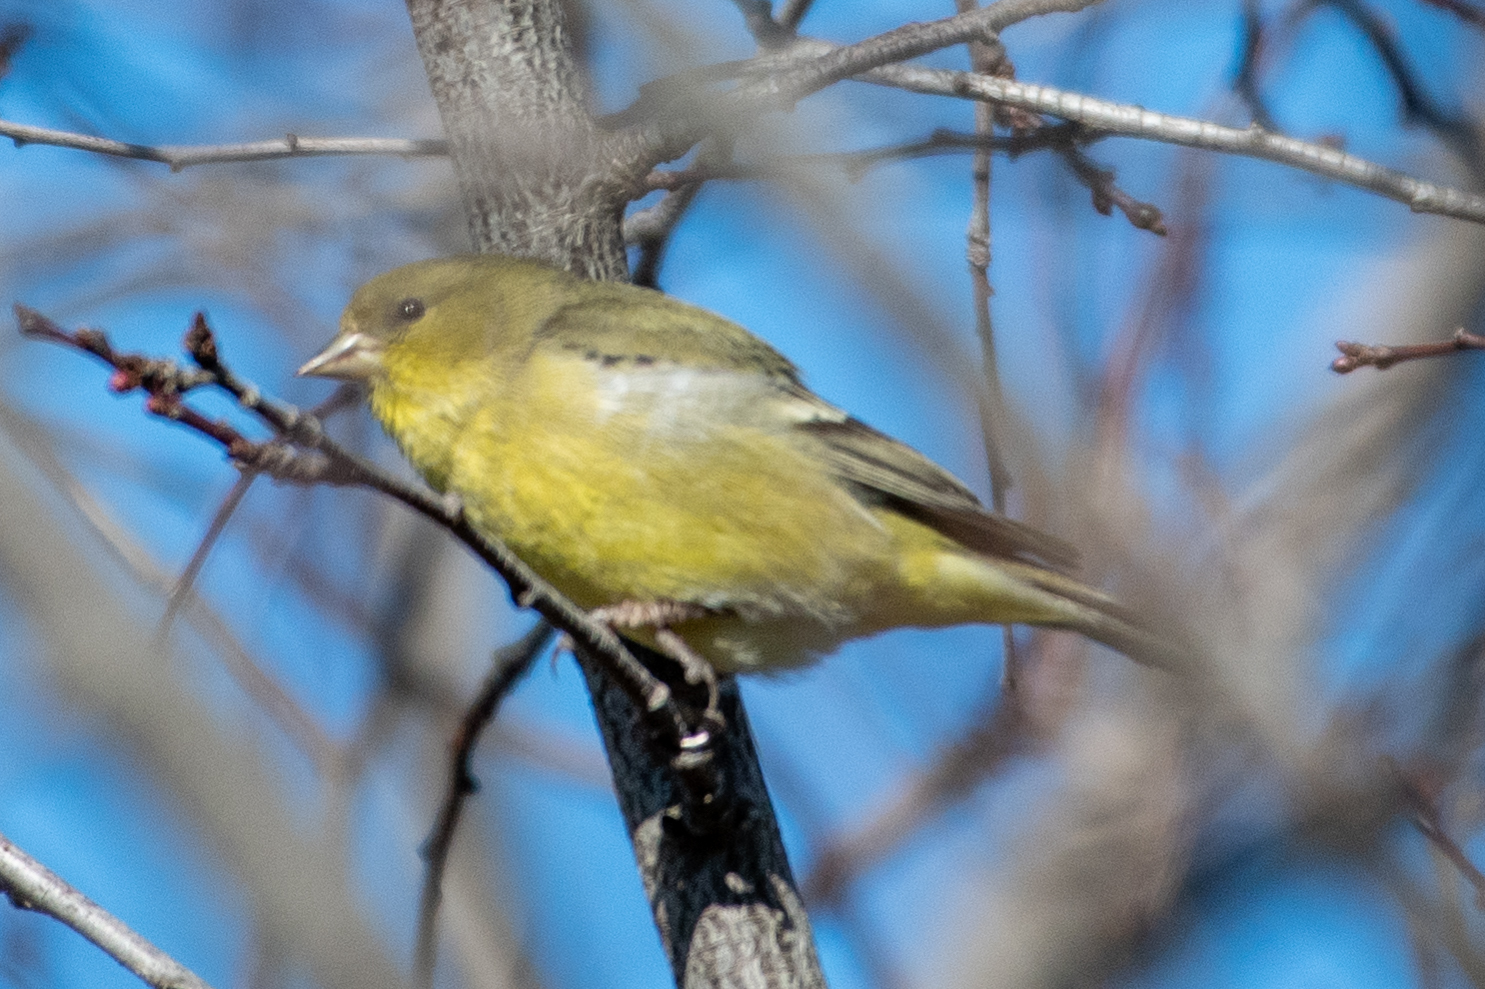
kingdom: Animalia
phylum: Chordata
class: Aves
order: Passeriformes
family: Fringillidae
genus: Spinus
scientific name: Spinus psaltria
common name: Lesser goldfinch
